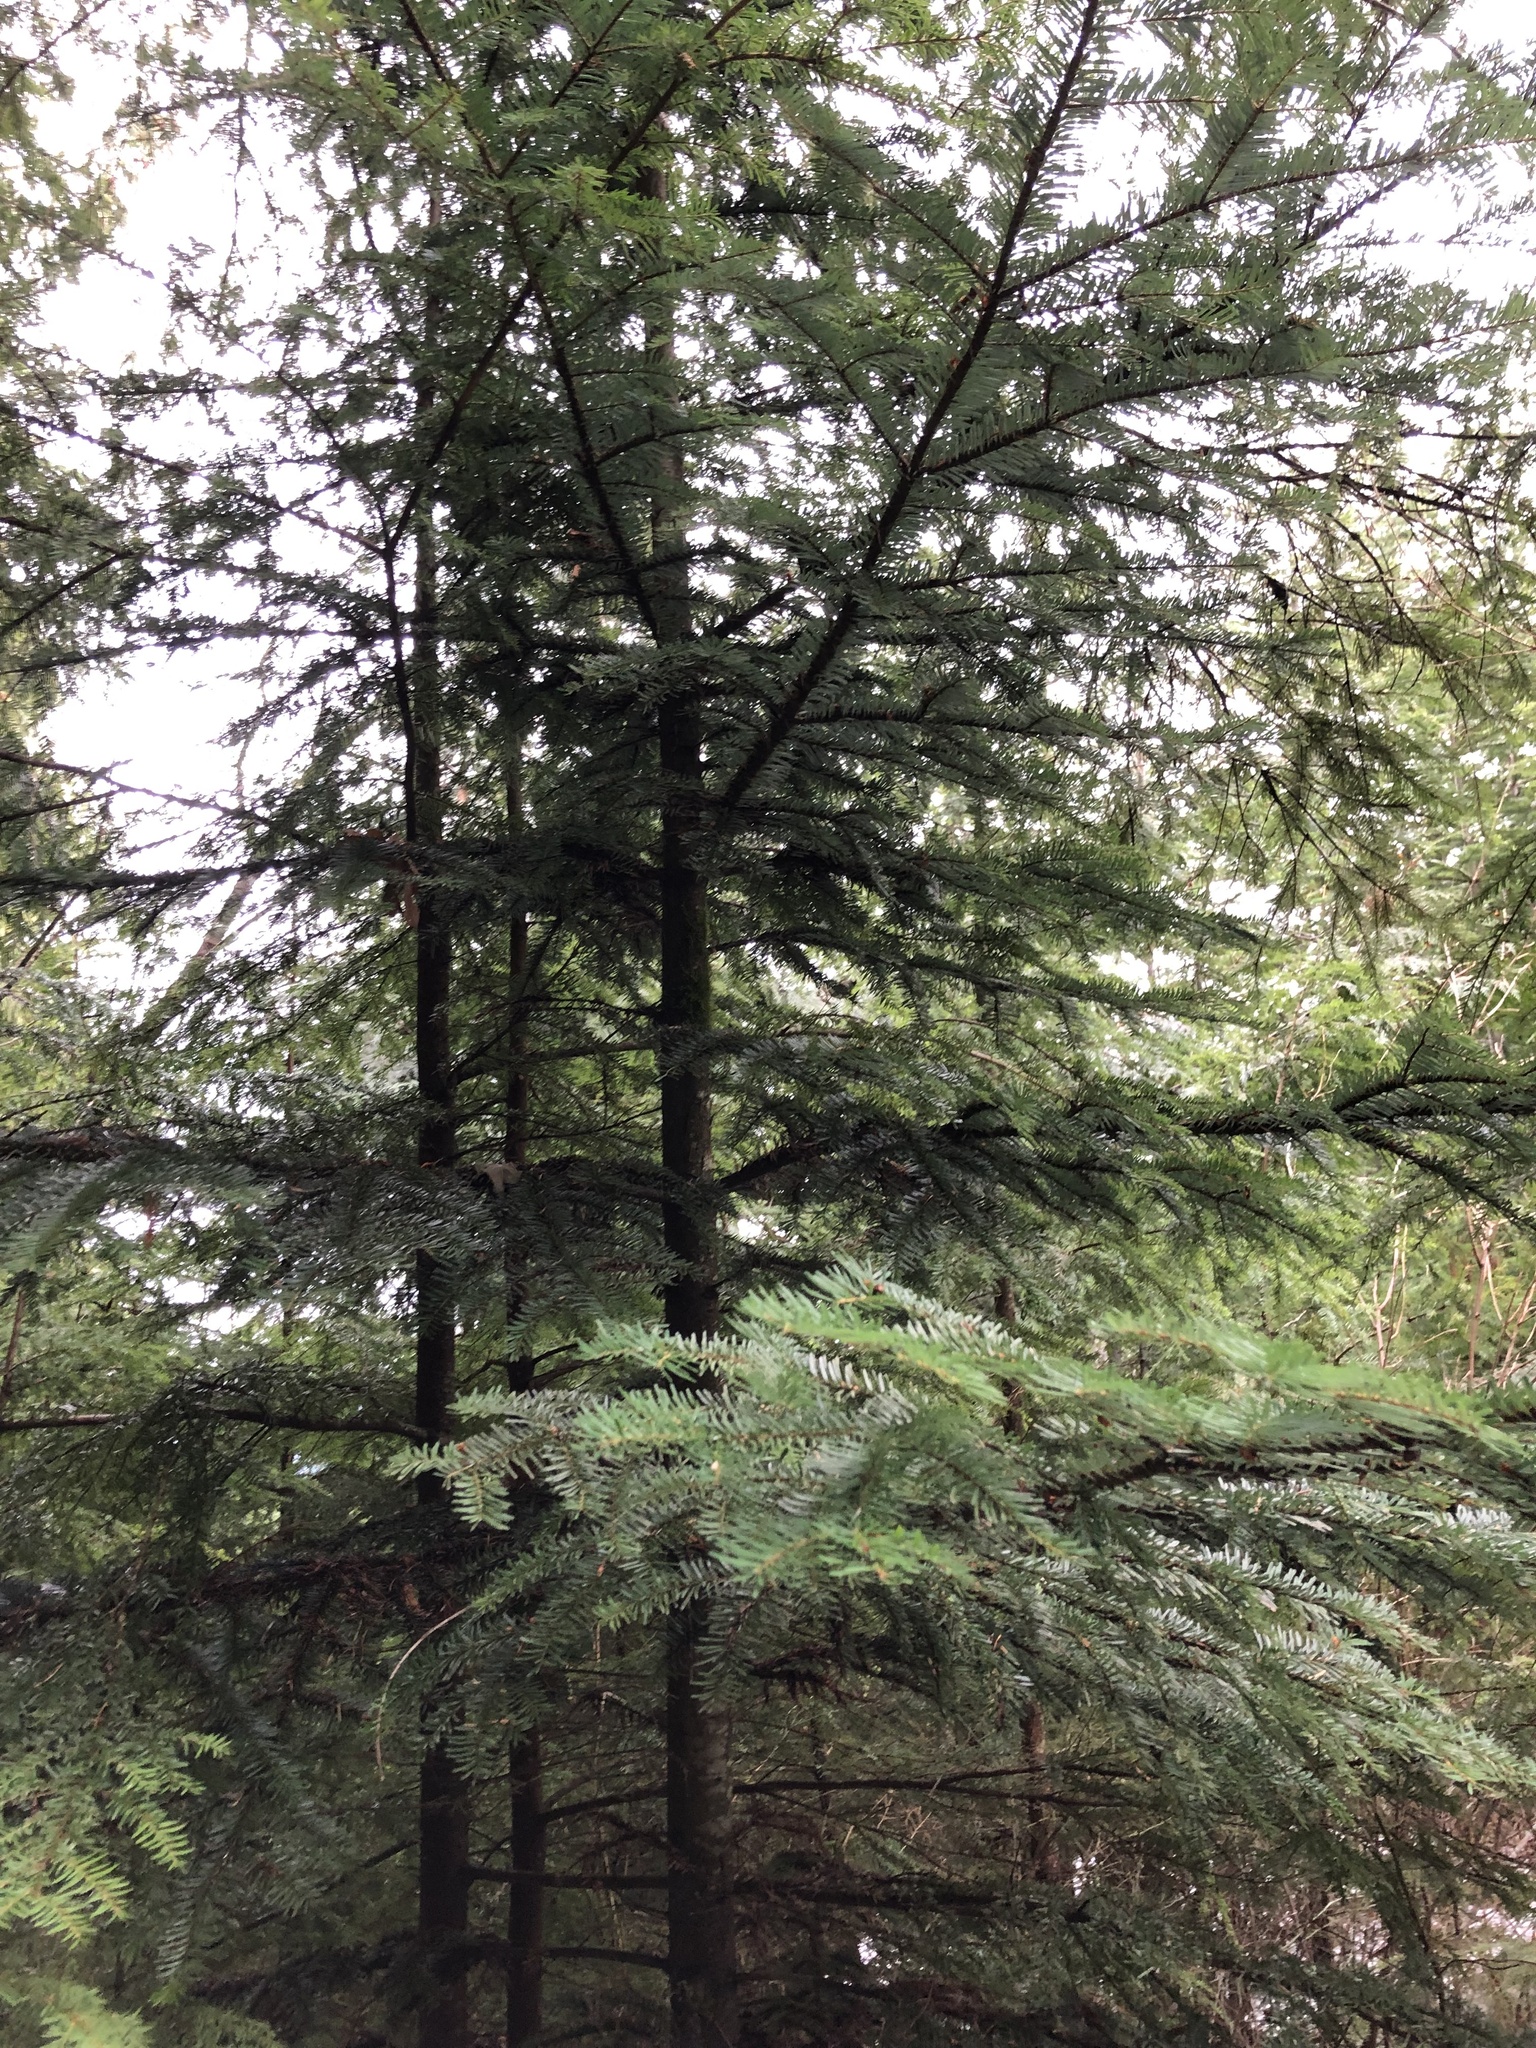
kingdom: Plantae
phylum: Tracheophyta
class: Pinopsida
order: Pinales
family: Pinaceae
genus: Abies
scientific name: Abies amabilis
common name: Pacific silver fir
